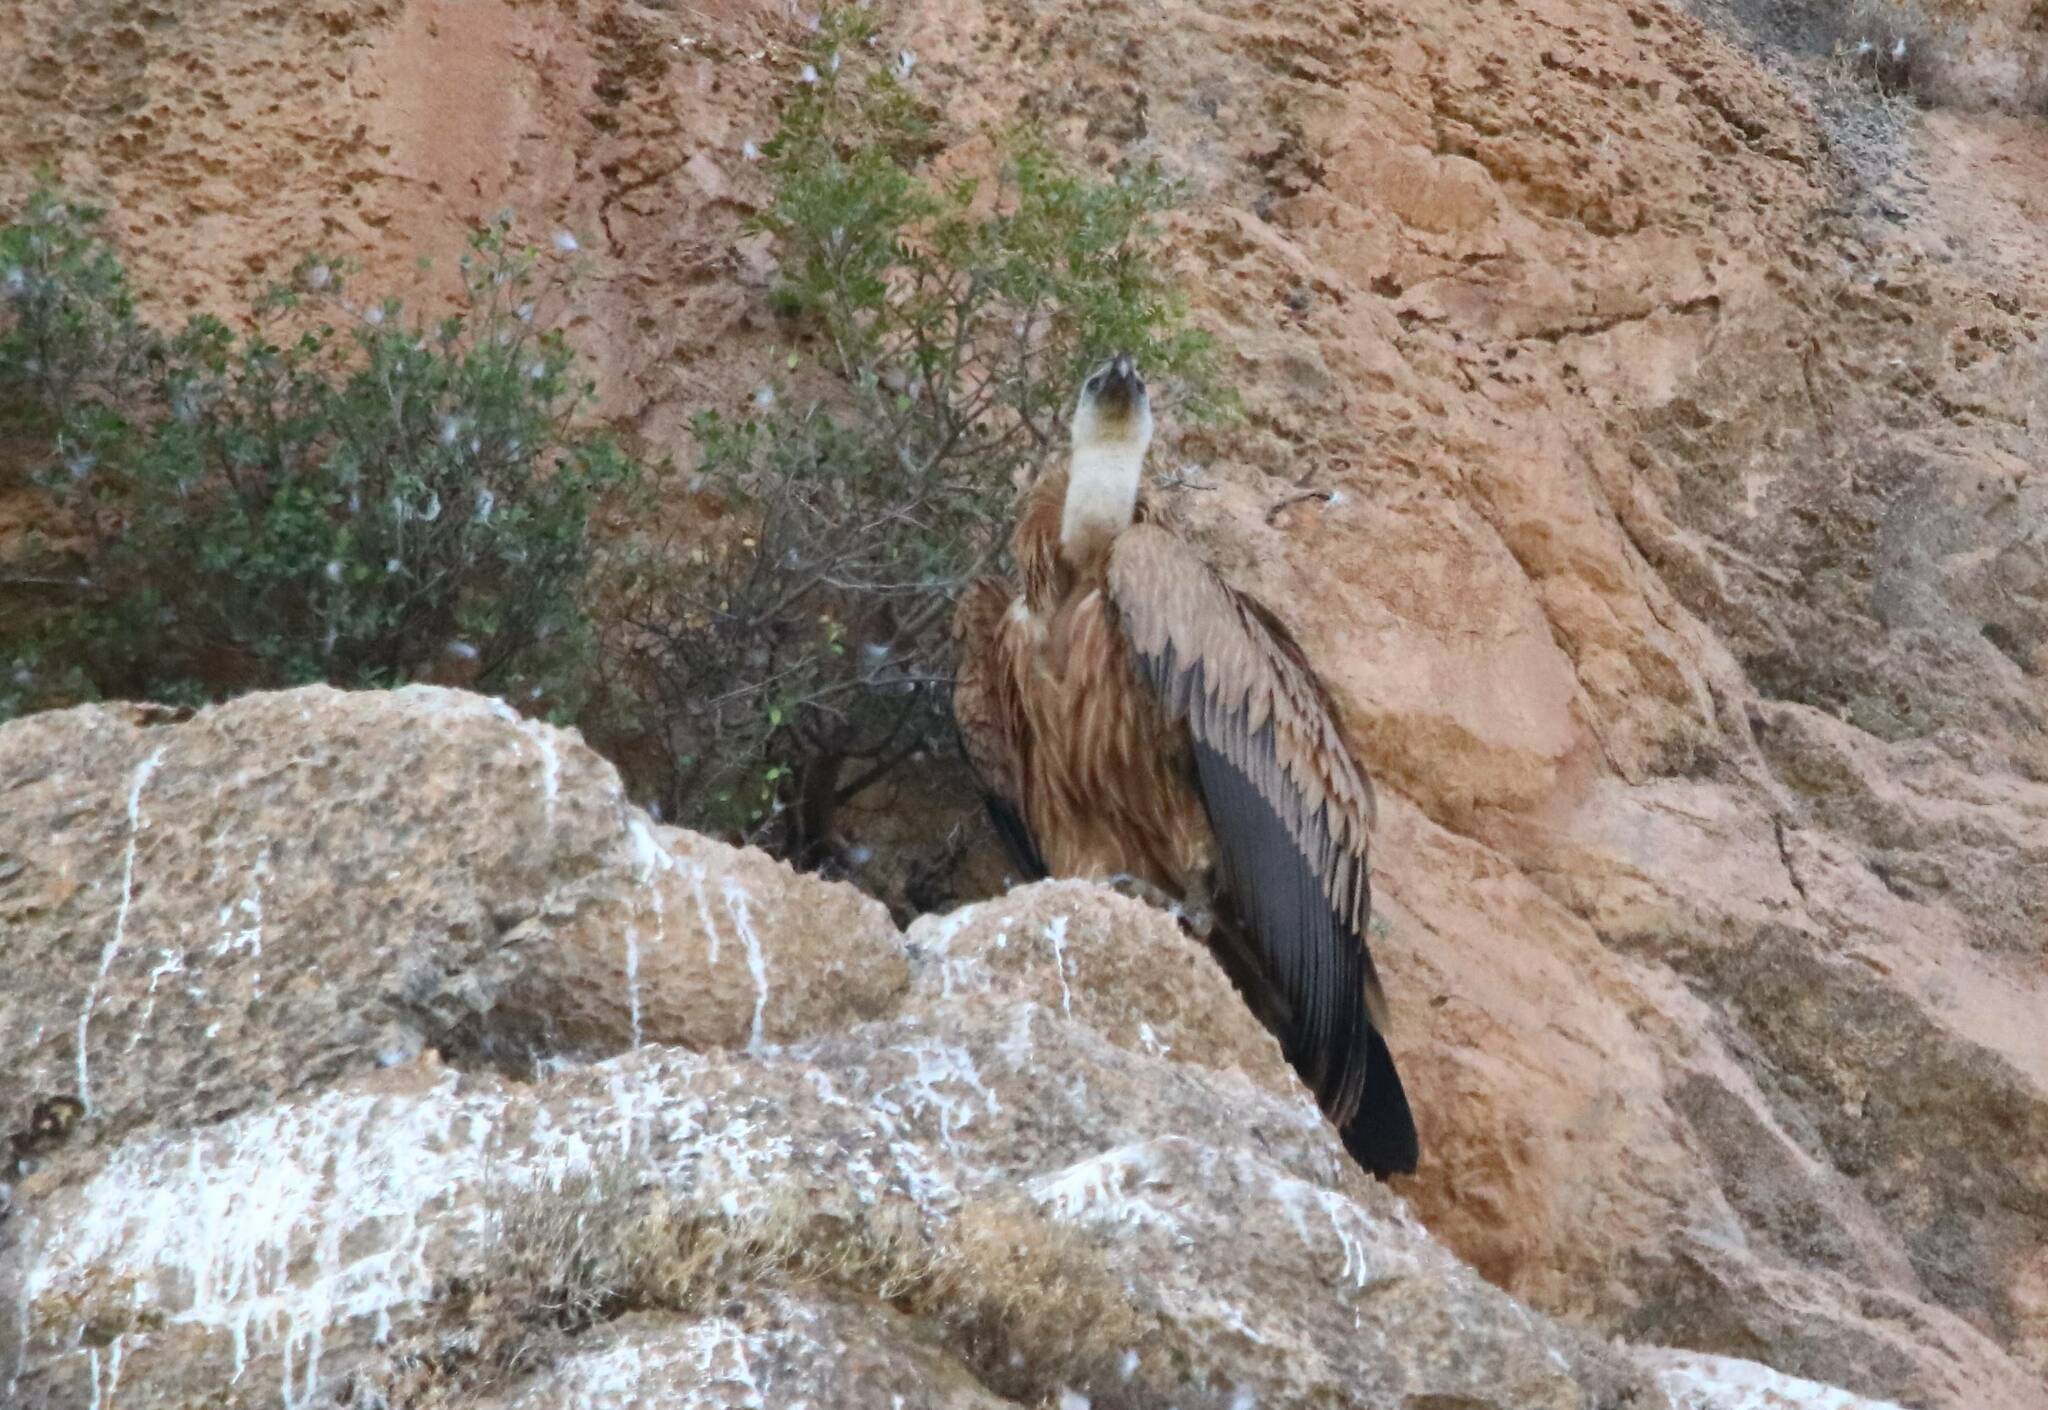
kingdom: Animalia
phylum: Chordata
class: Aves
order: Accipitriformes
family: Accipitridae
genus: Gyps
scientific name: Gyps fulvus
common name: Griffon vulture
